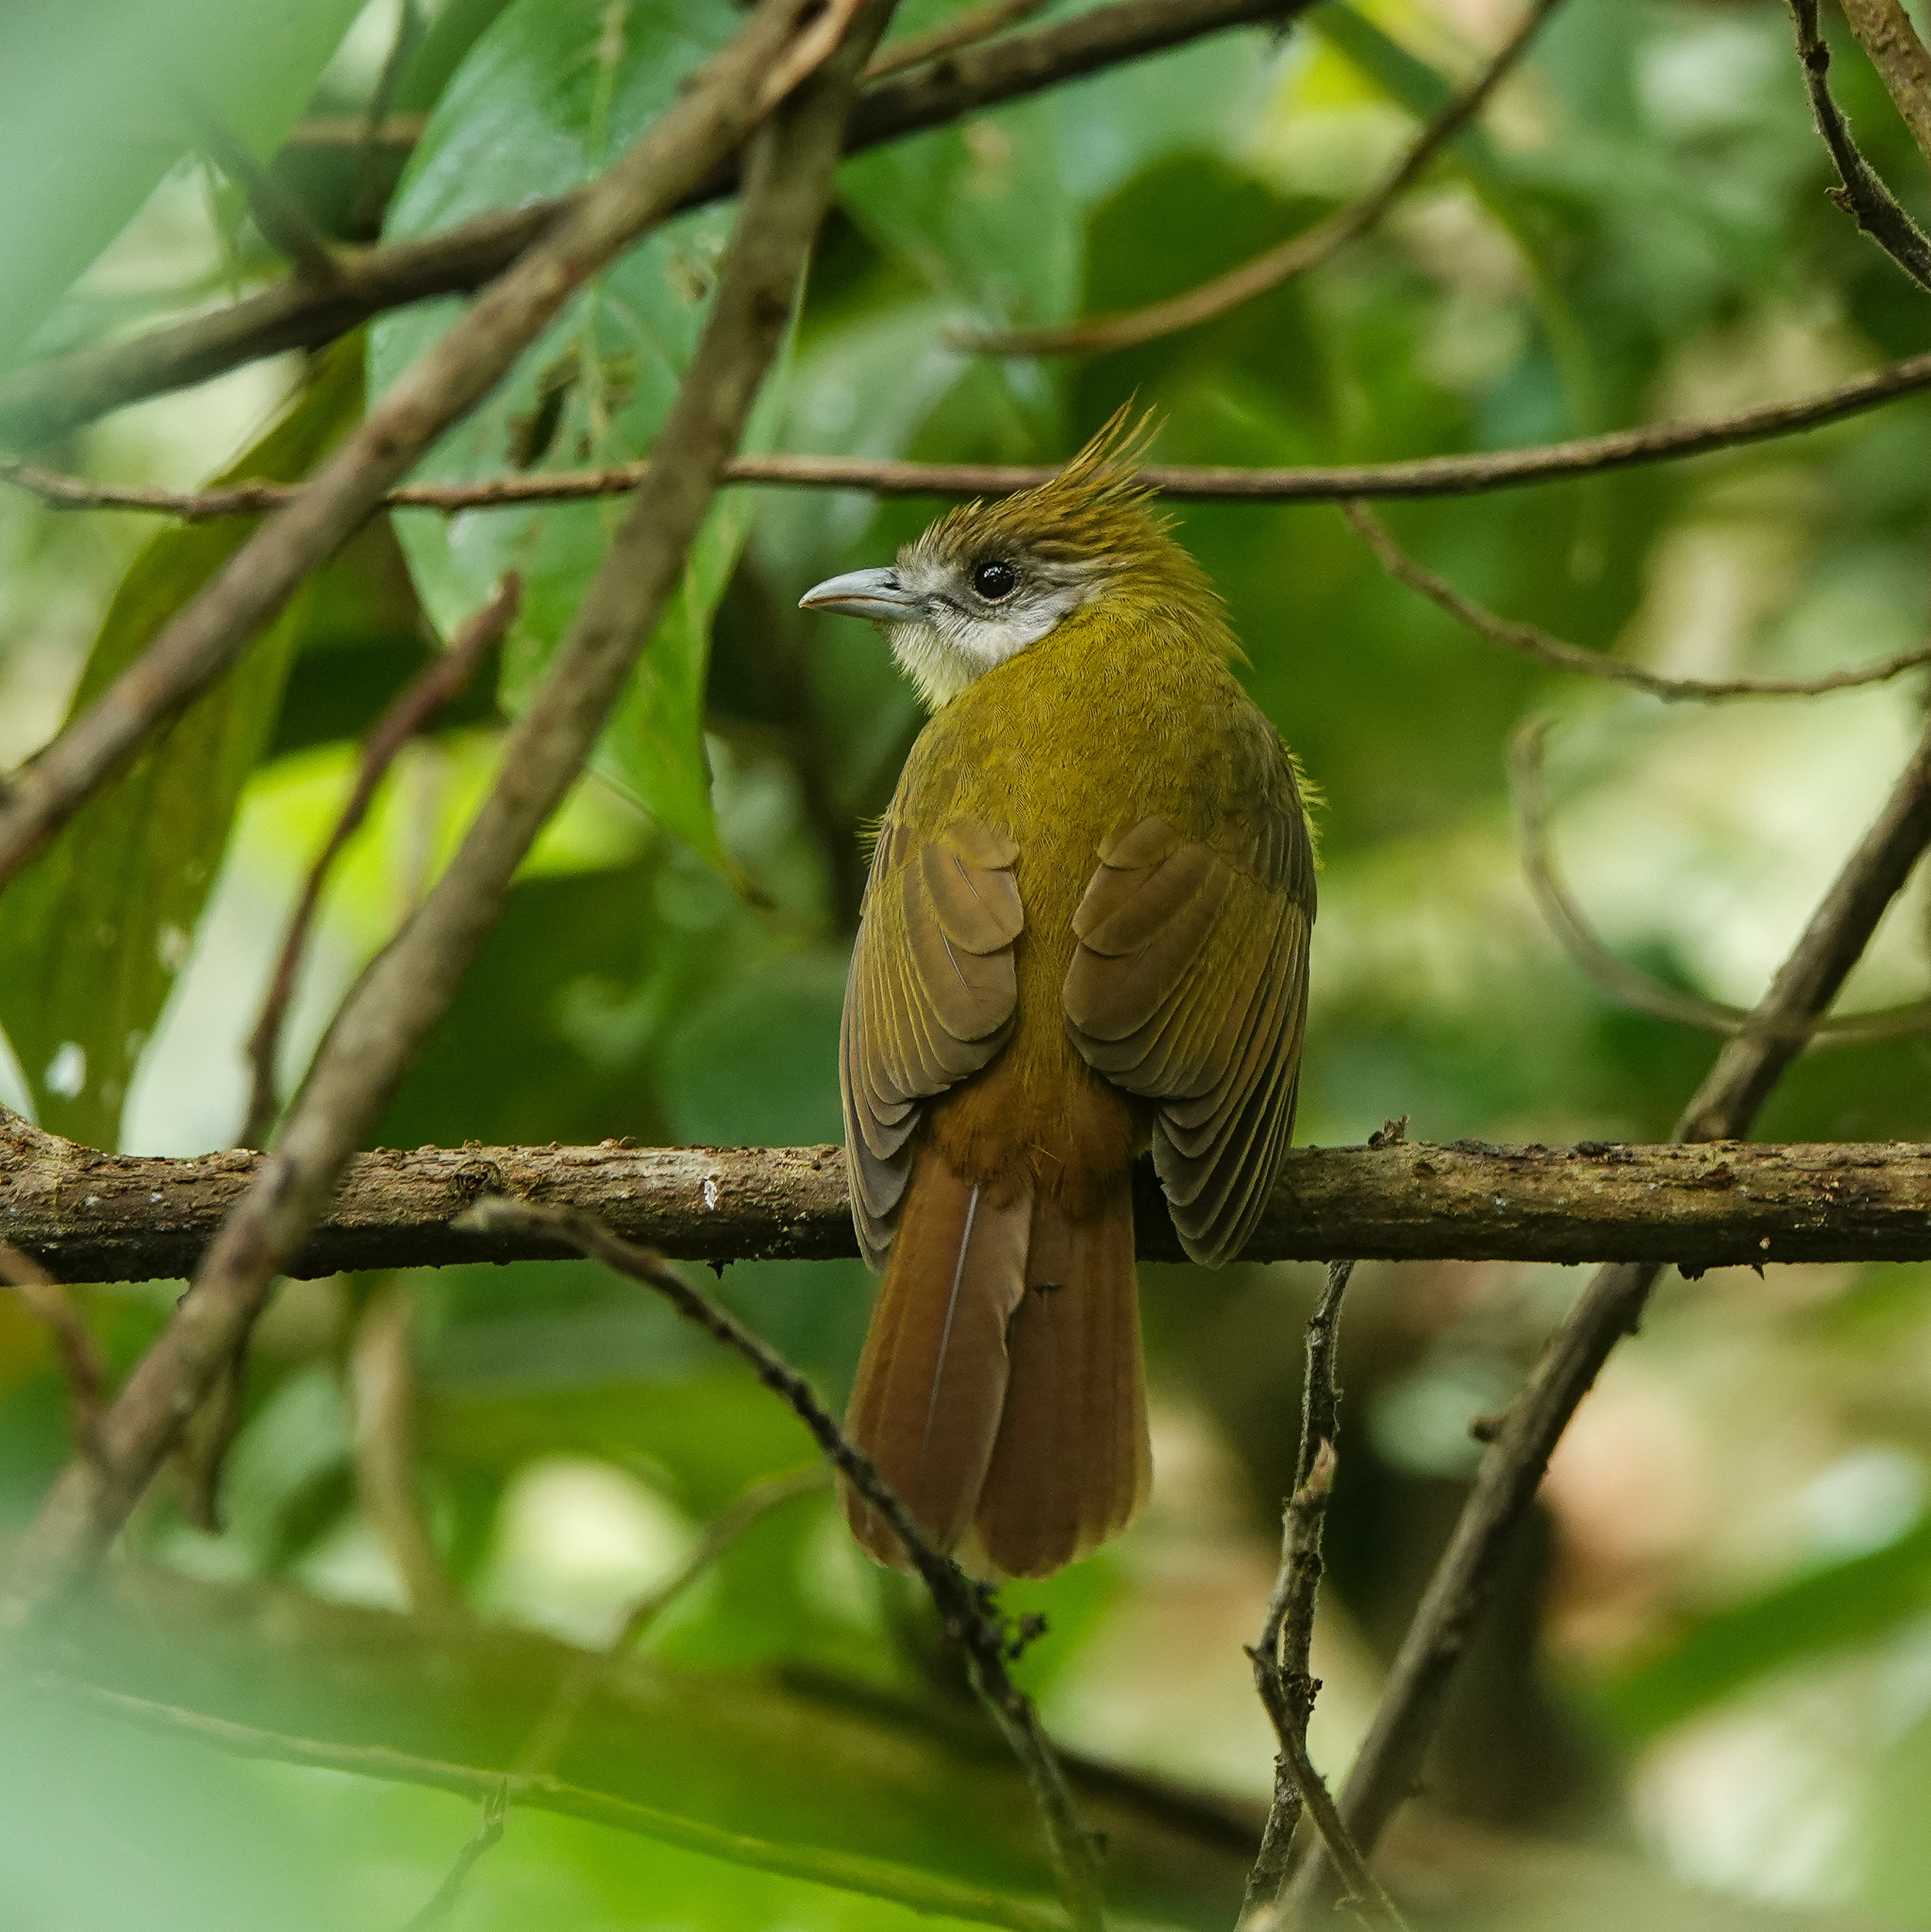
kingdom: Animalia
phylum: Chordata
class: Aves
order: Passeriformes
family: Pycnonotidae
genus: Alophoixus
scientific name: Alophoixus flaveolus
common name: White-throated bulbul
